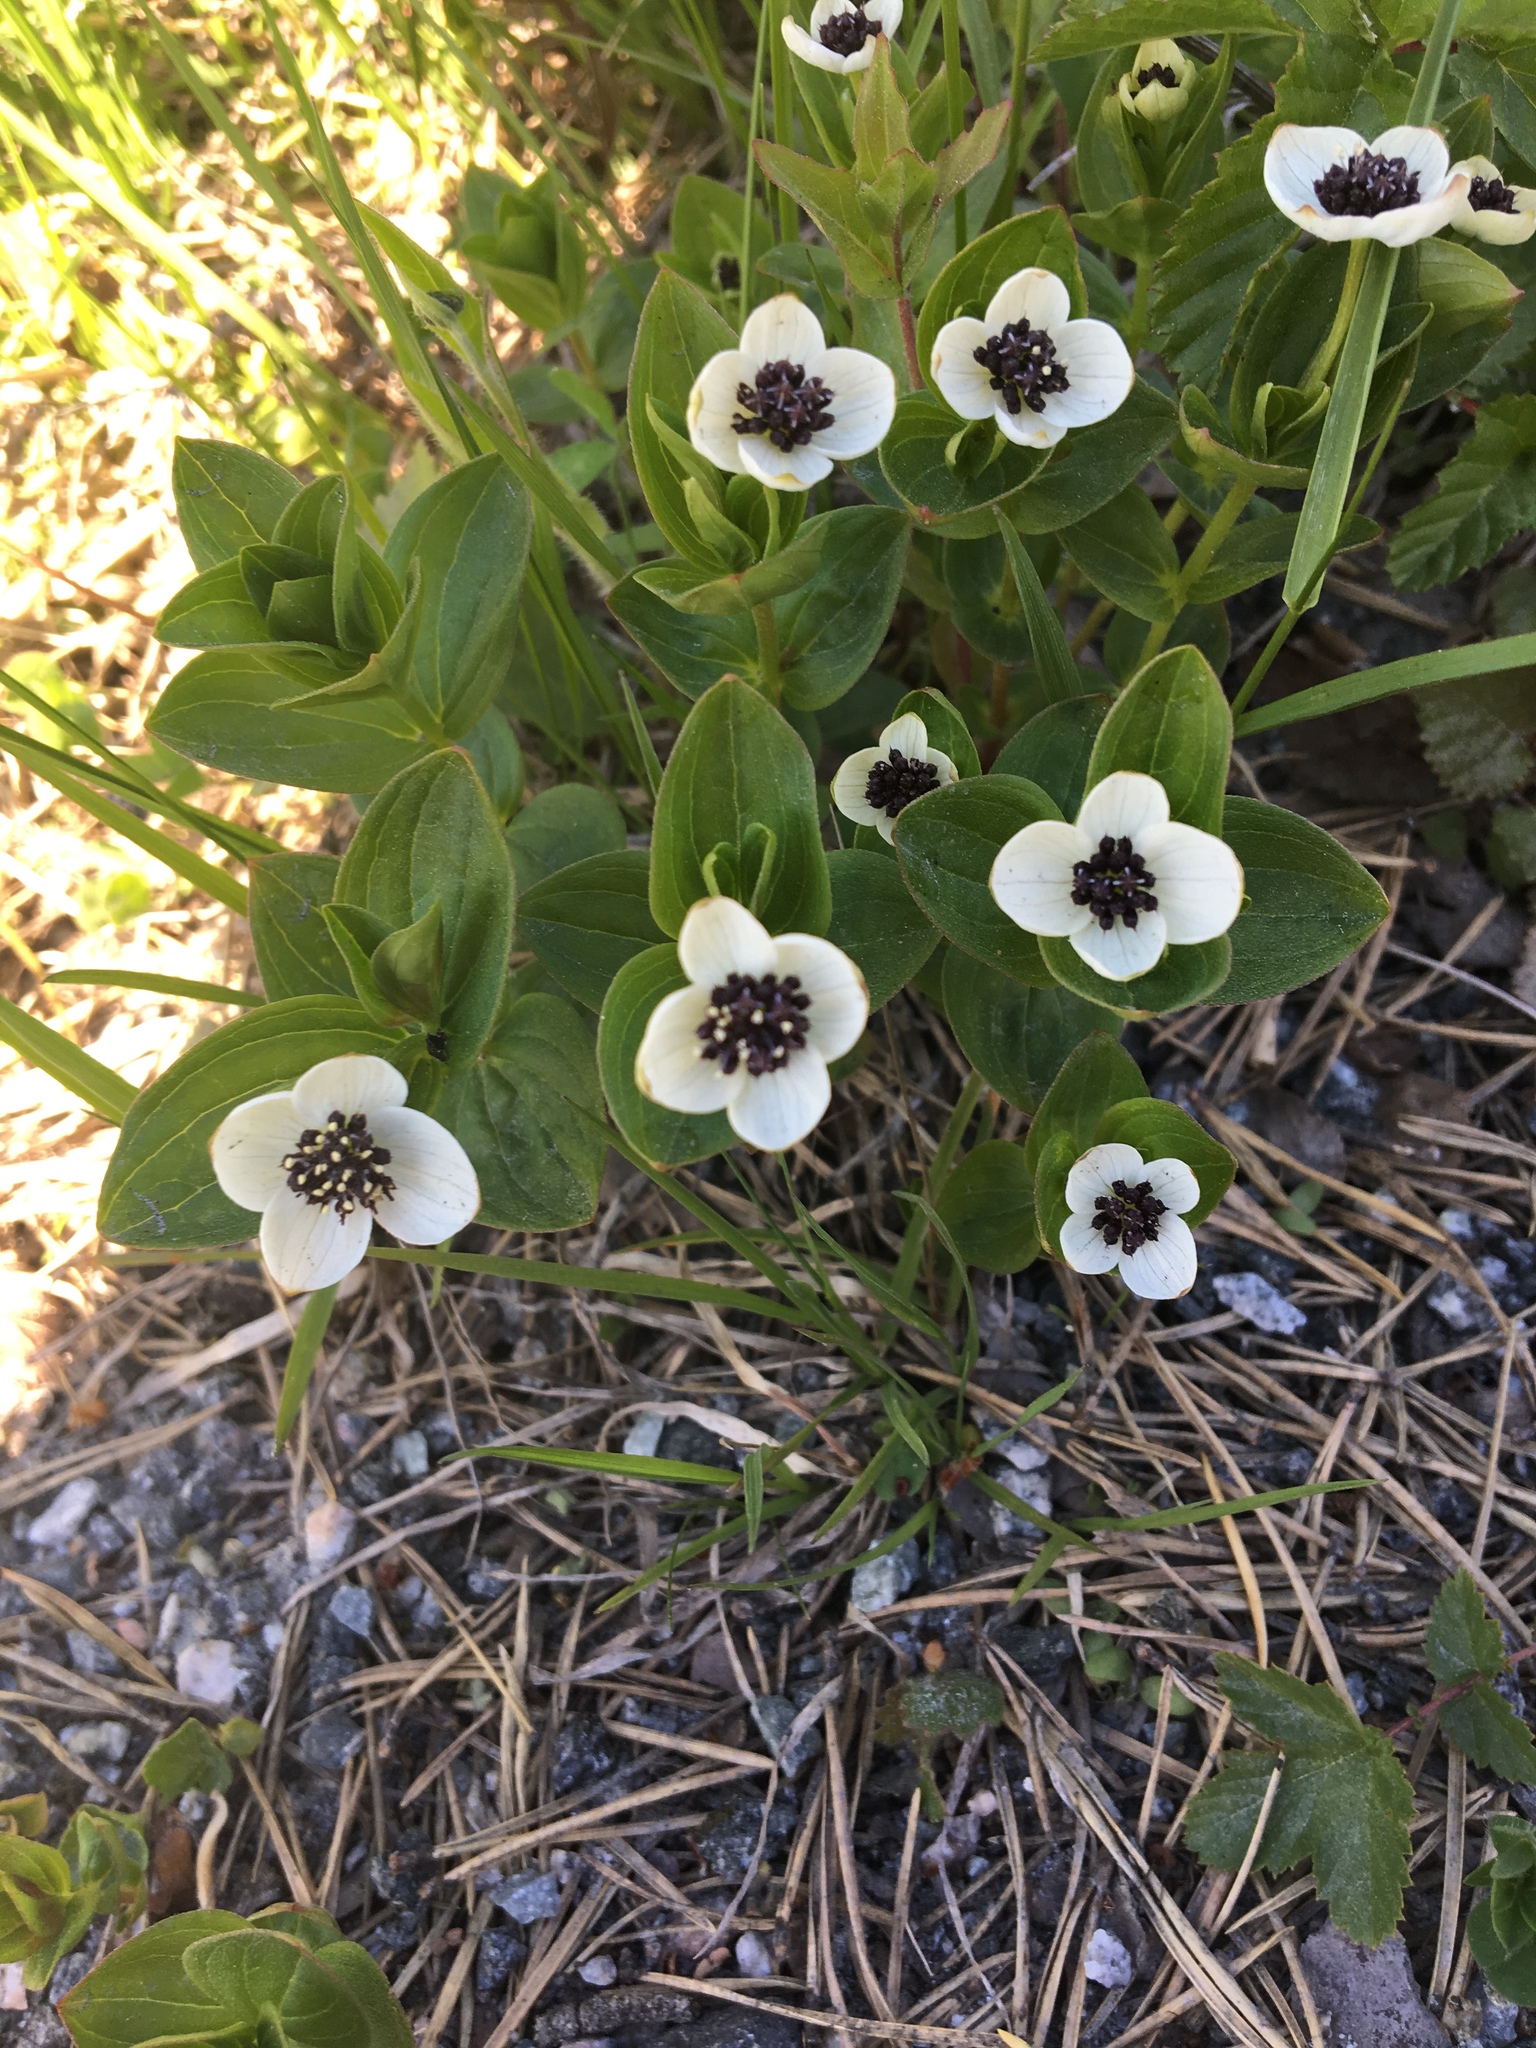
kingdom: Plantae
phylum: Tracheophyta
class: Magnoliopsida
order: Cornales
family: Cornaceae
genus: Cornus
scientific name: Cornus suecica
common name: Dwarf cornel
